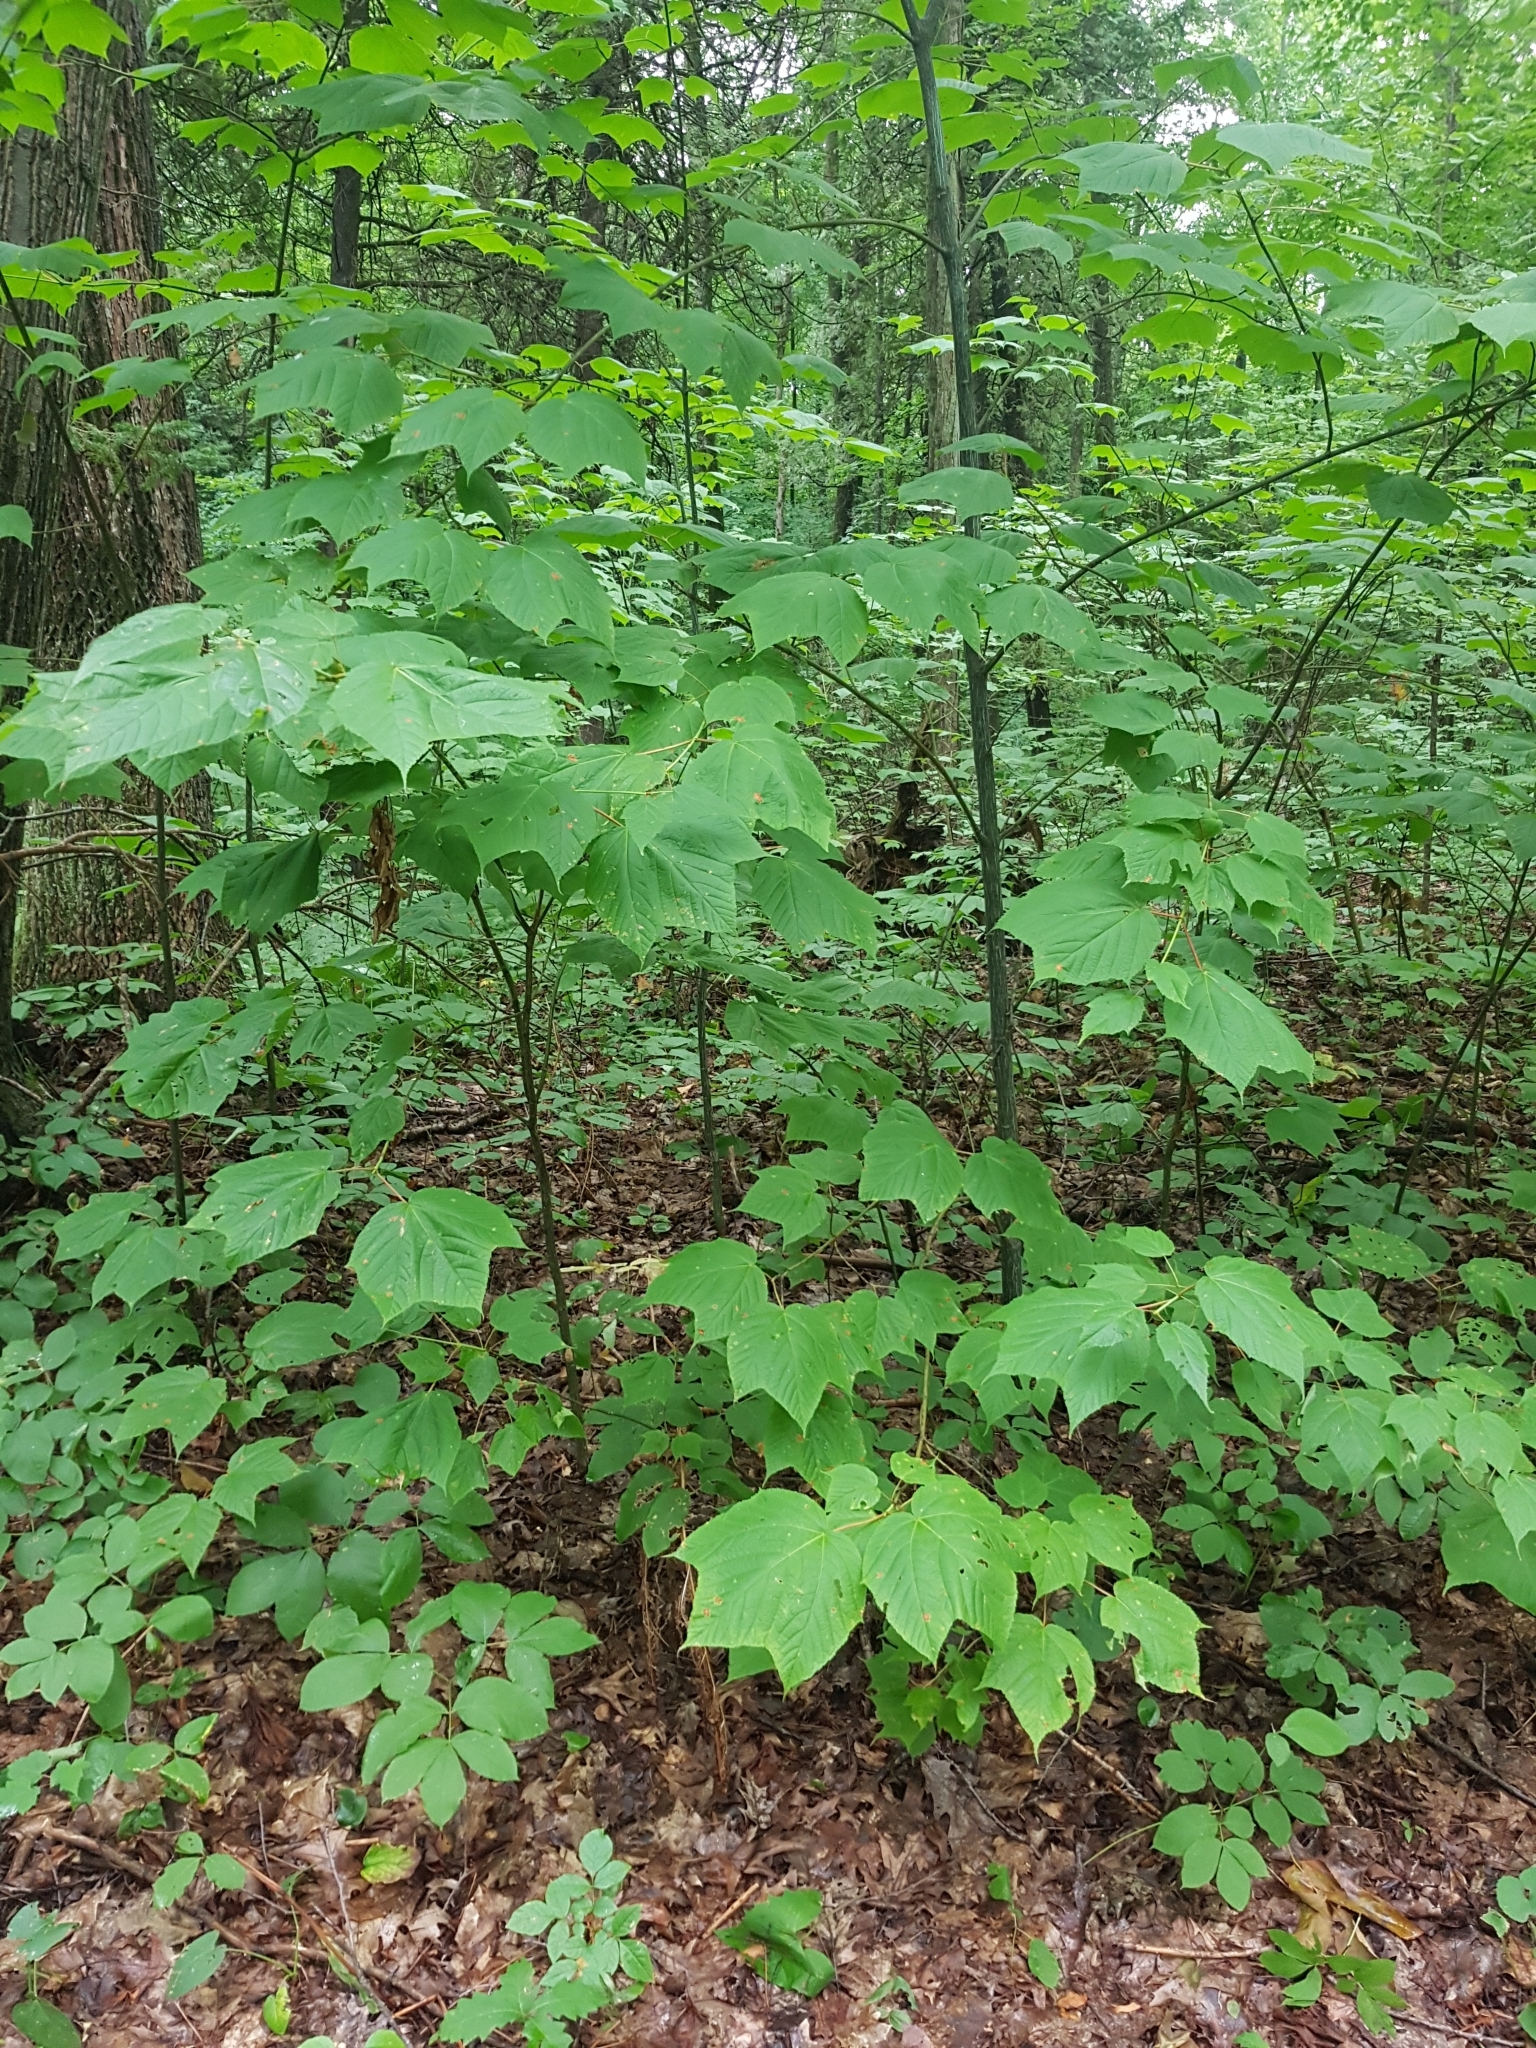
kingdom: Plantae
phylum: Tracheophyta
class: Magnoliopsida
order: Sapindales
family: Sapindaceae
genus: Acer
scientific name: Acer pensylvanicum
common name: Moosewood
